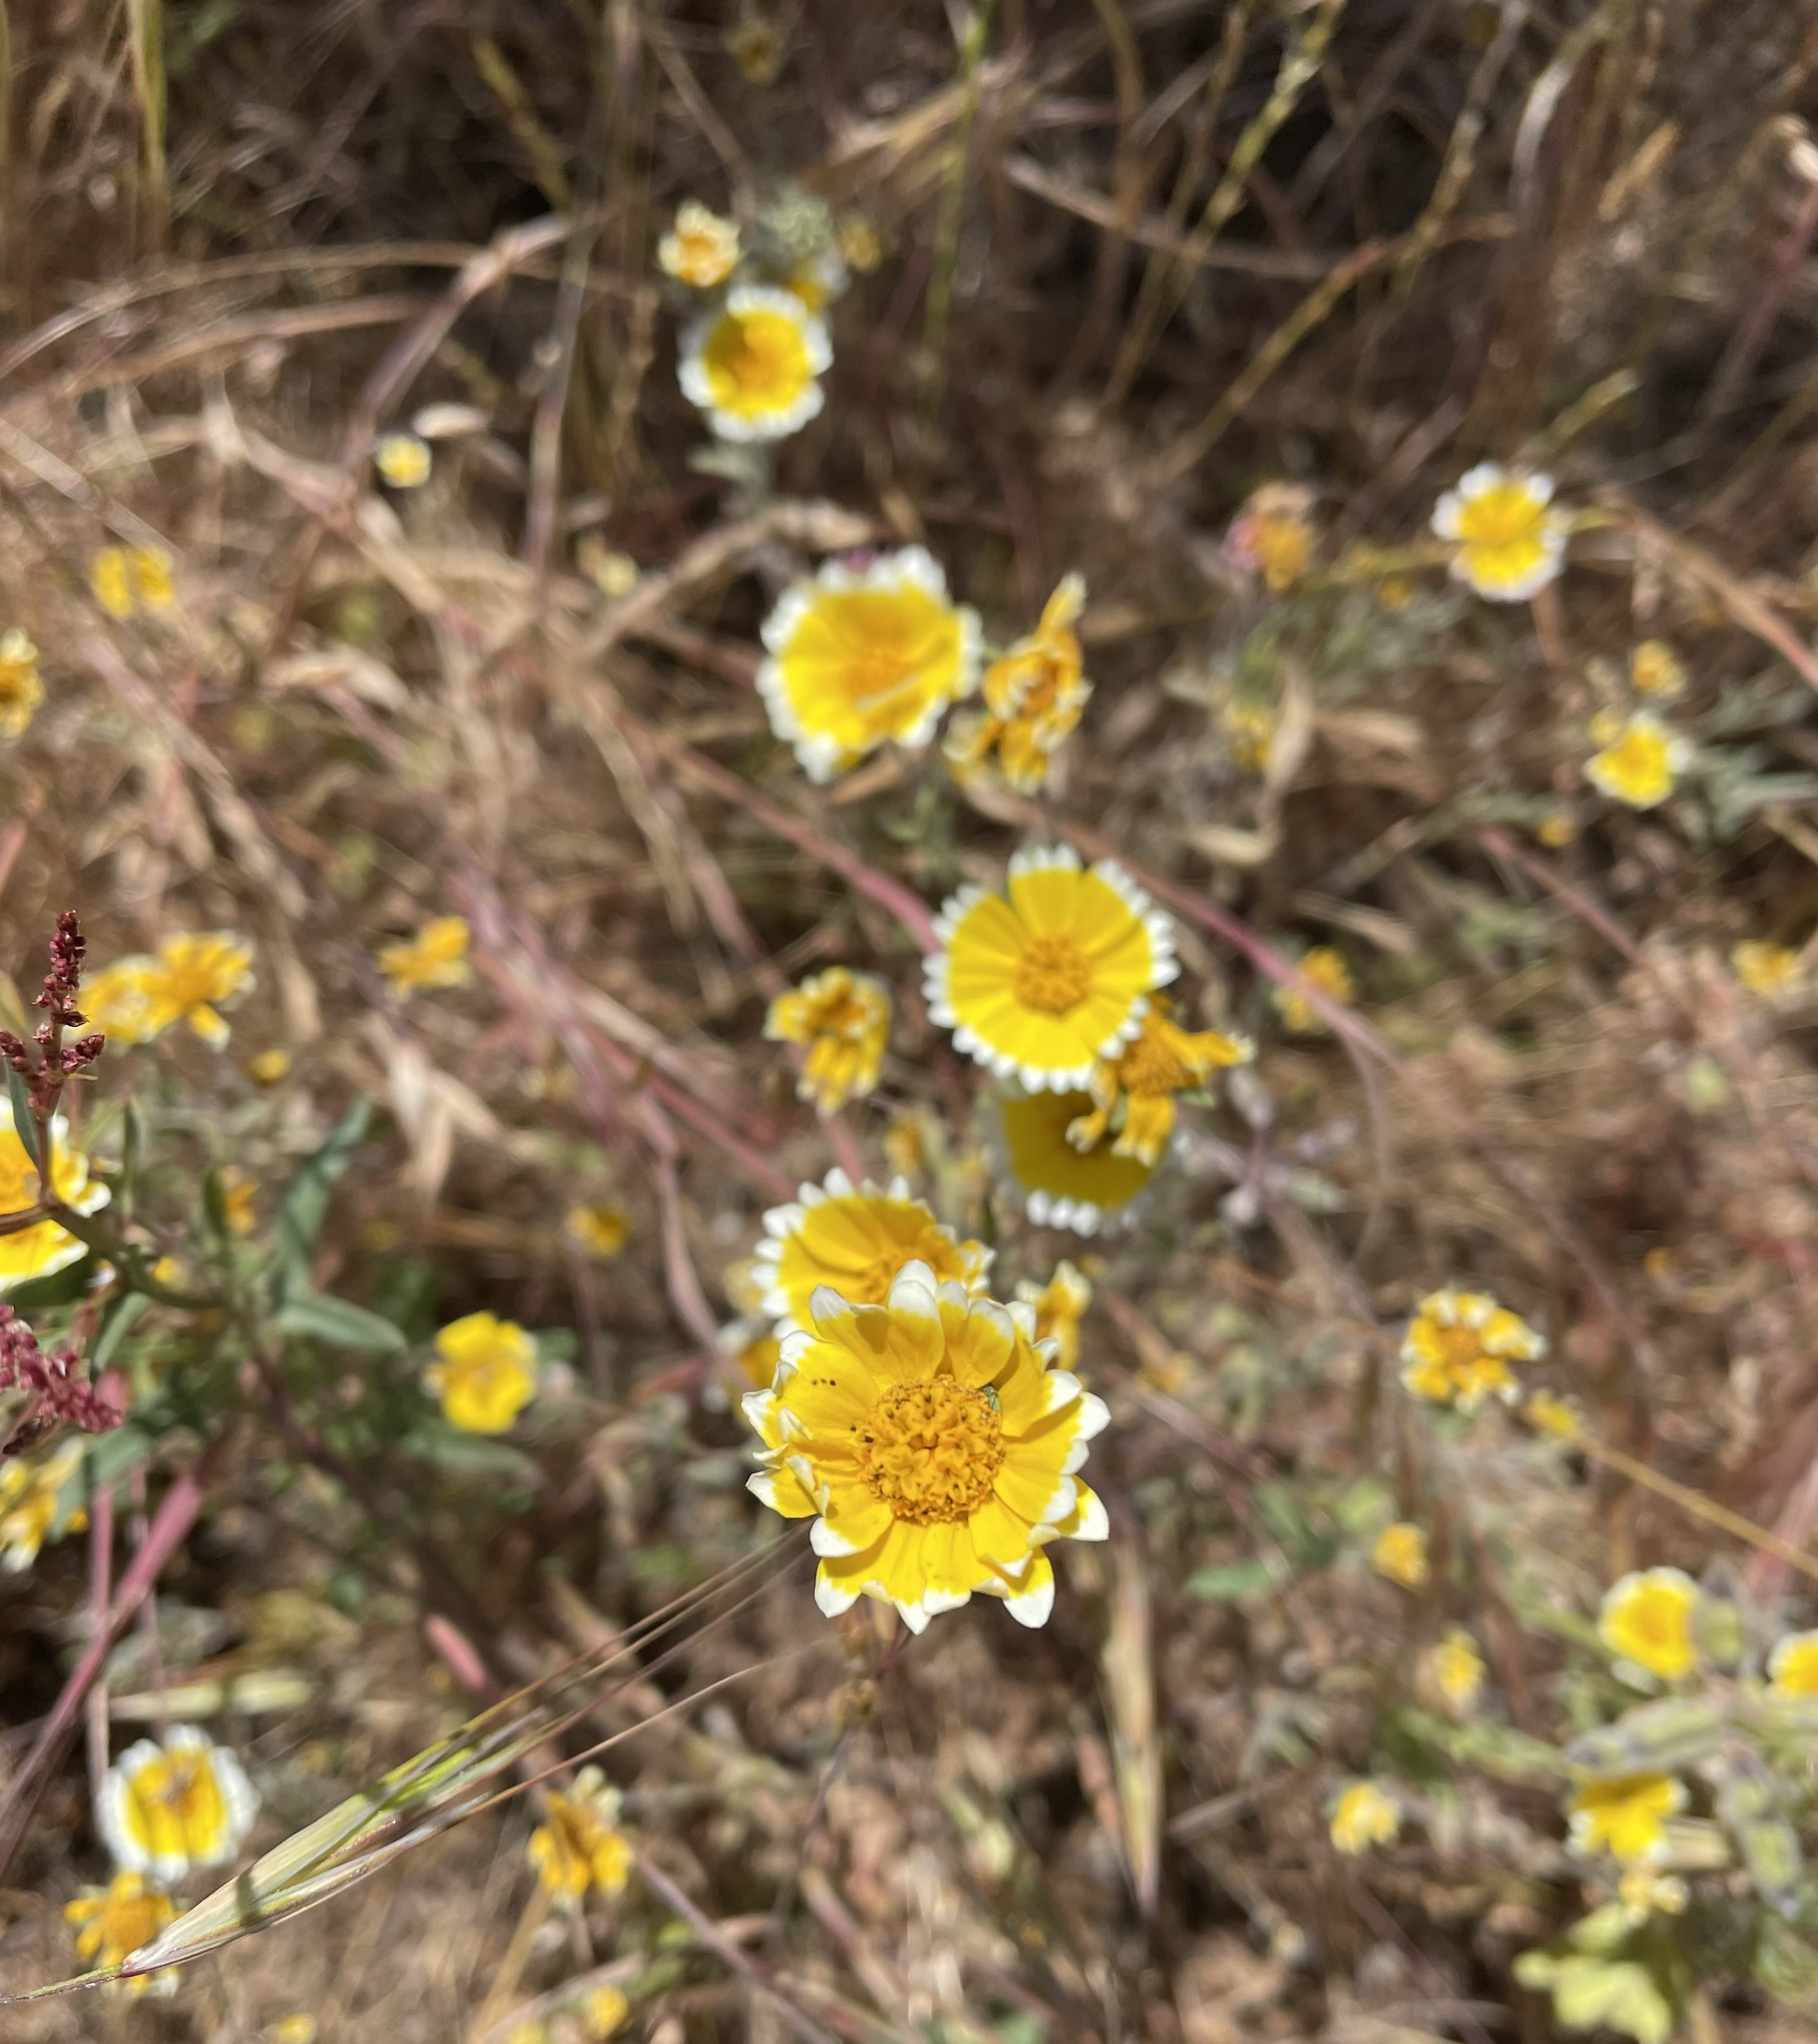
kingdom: Plantae
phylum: Tracheophyta
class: Magnoliopsida
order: Asterales
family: Asteraceae
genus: Layia
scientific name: Layia platyglossa
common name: Tidy-tips
